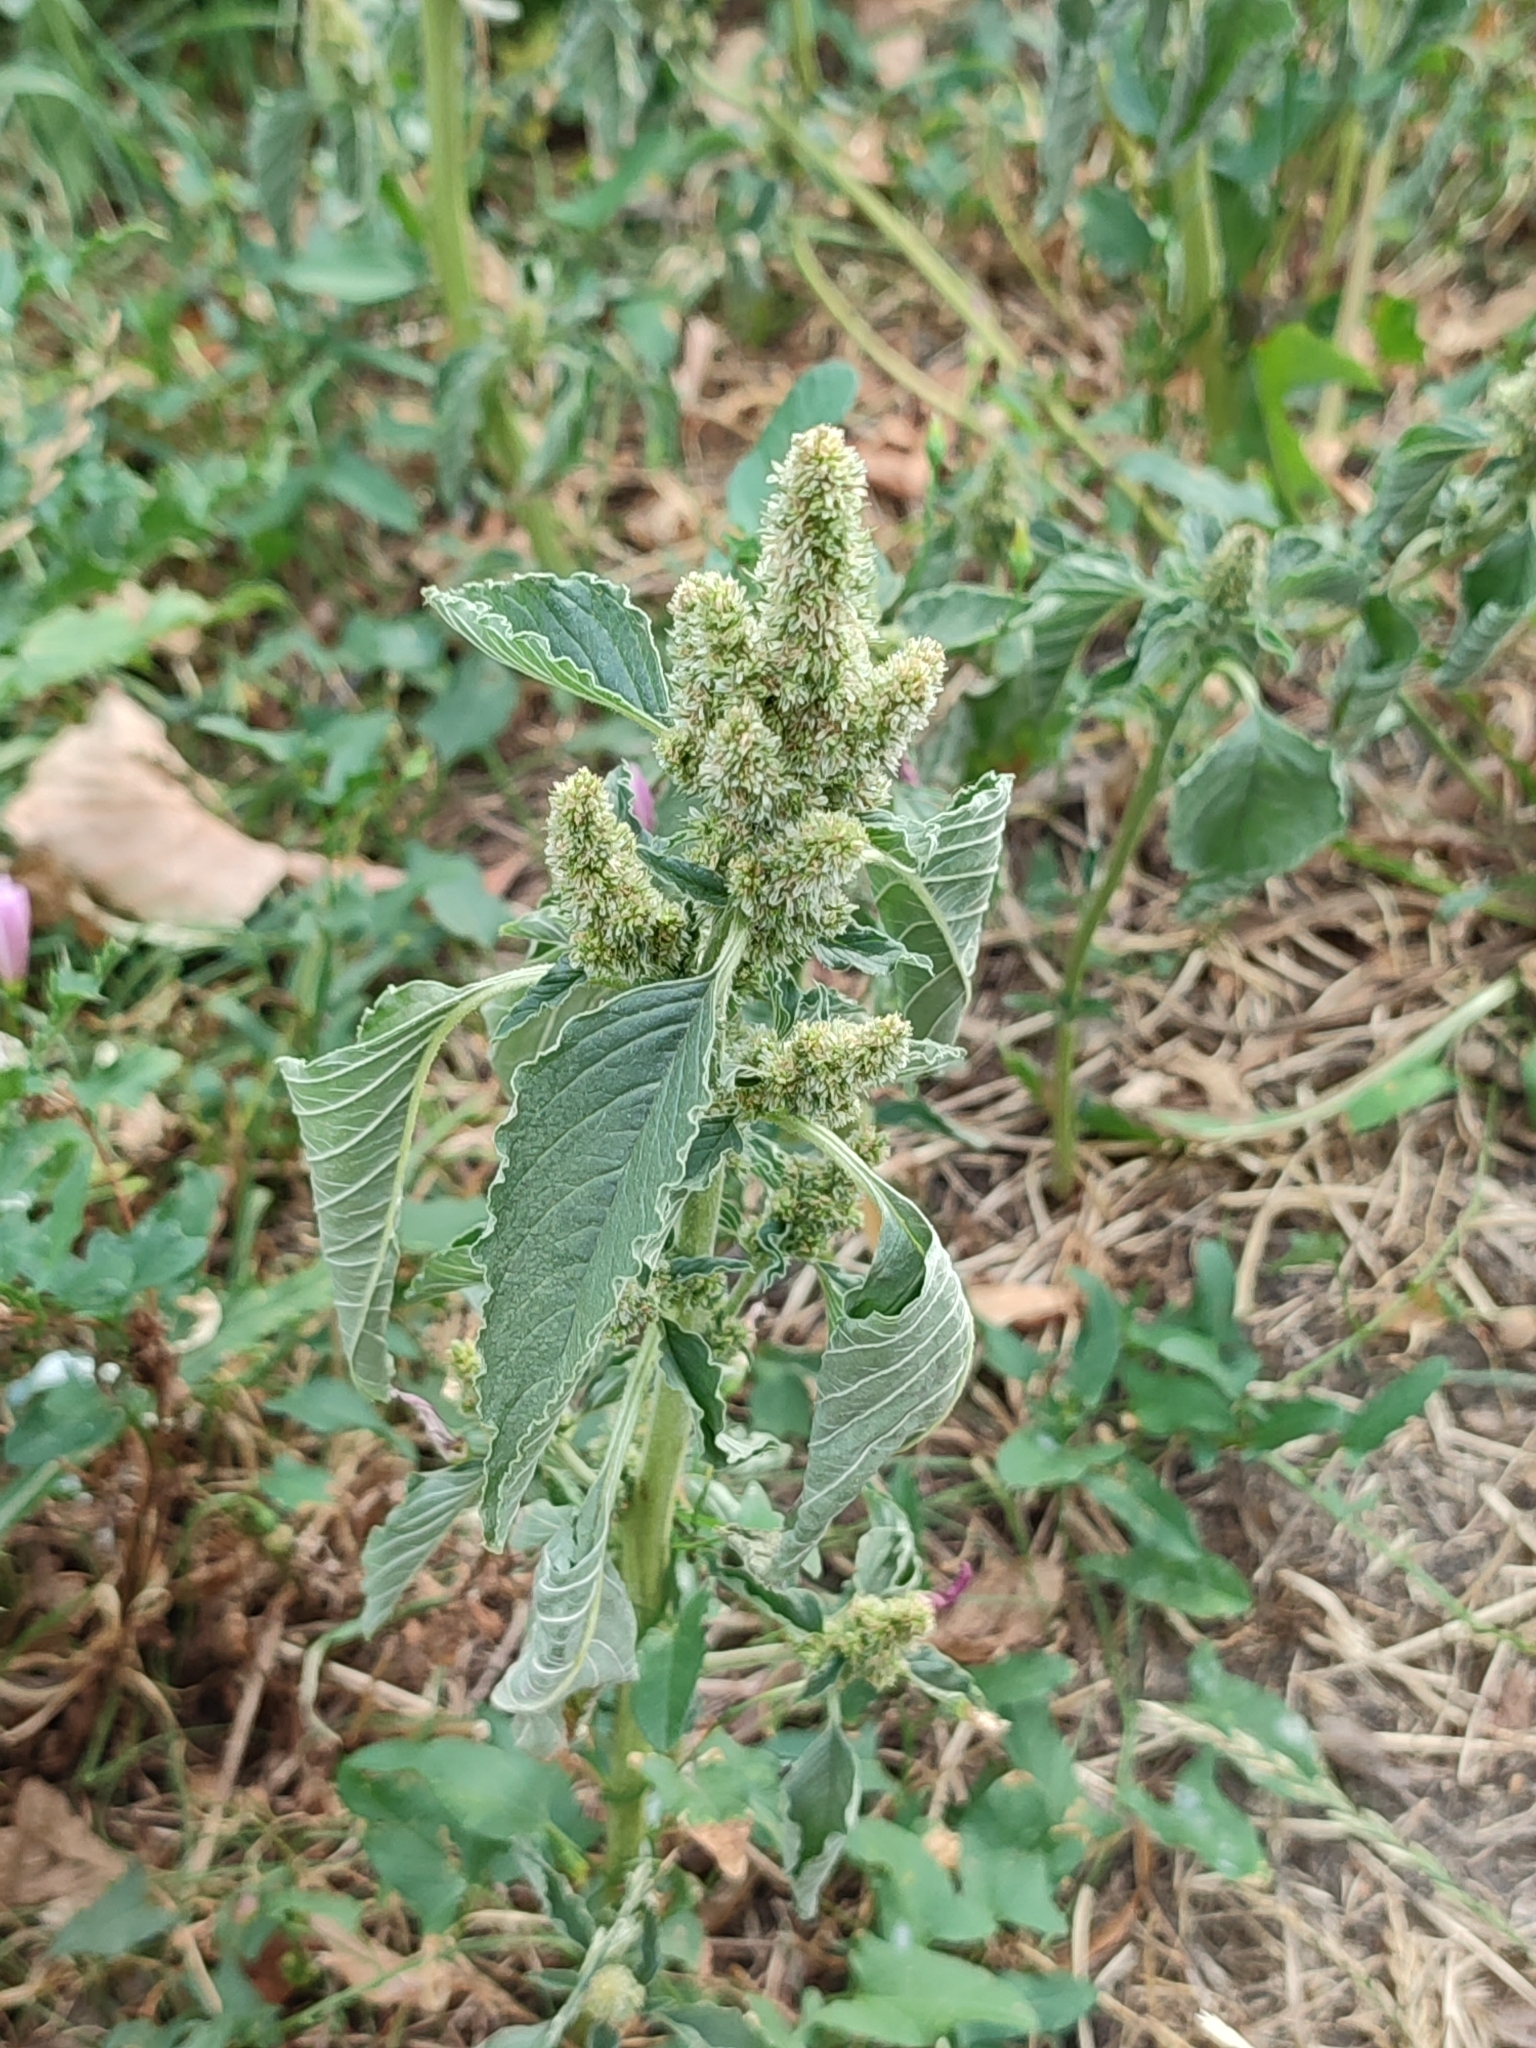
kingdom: Plantae
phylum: Tracheophyta
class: Magnoliopsida
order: Caryophyllales
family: Amaranthaceae
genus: Amaranthus
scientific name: Amaranthus retroflexus
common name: Redroot amaranth
